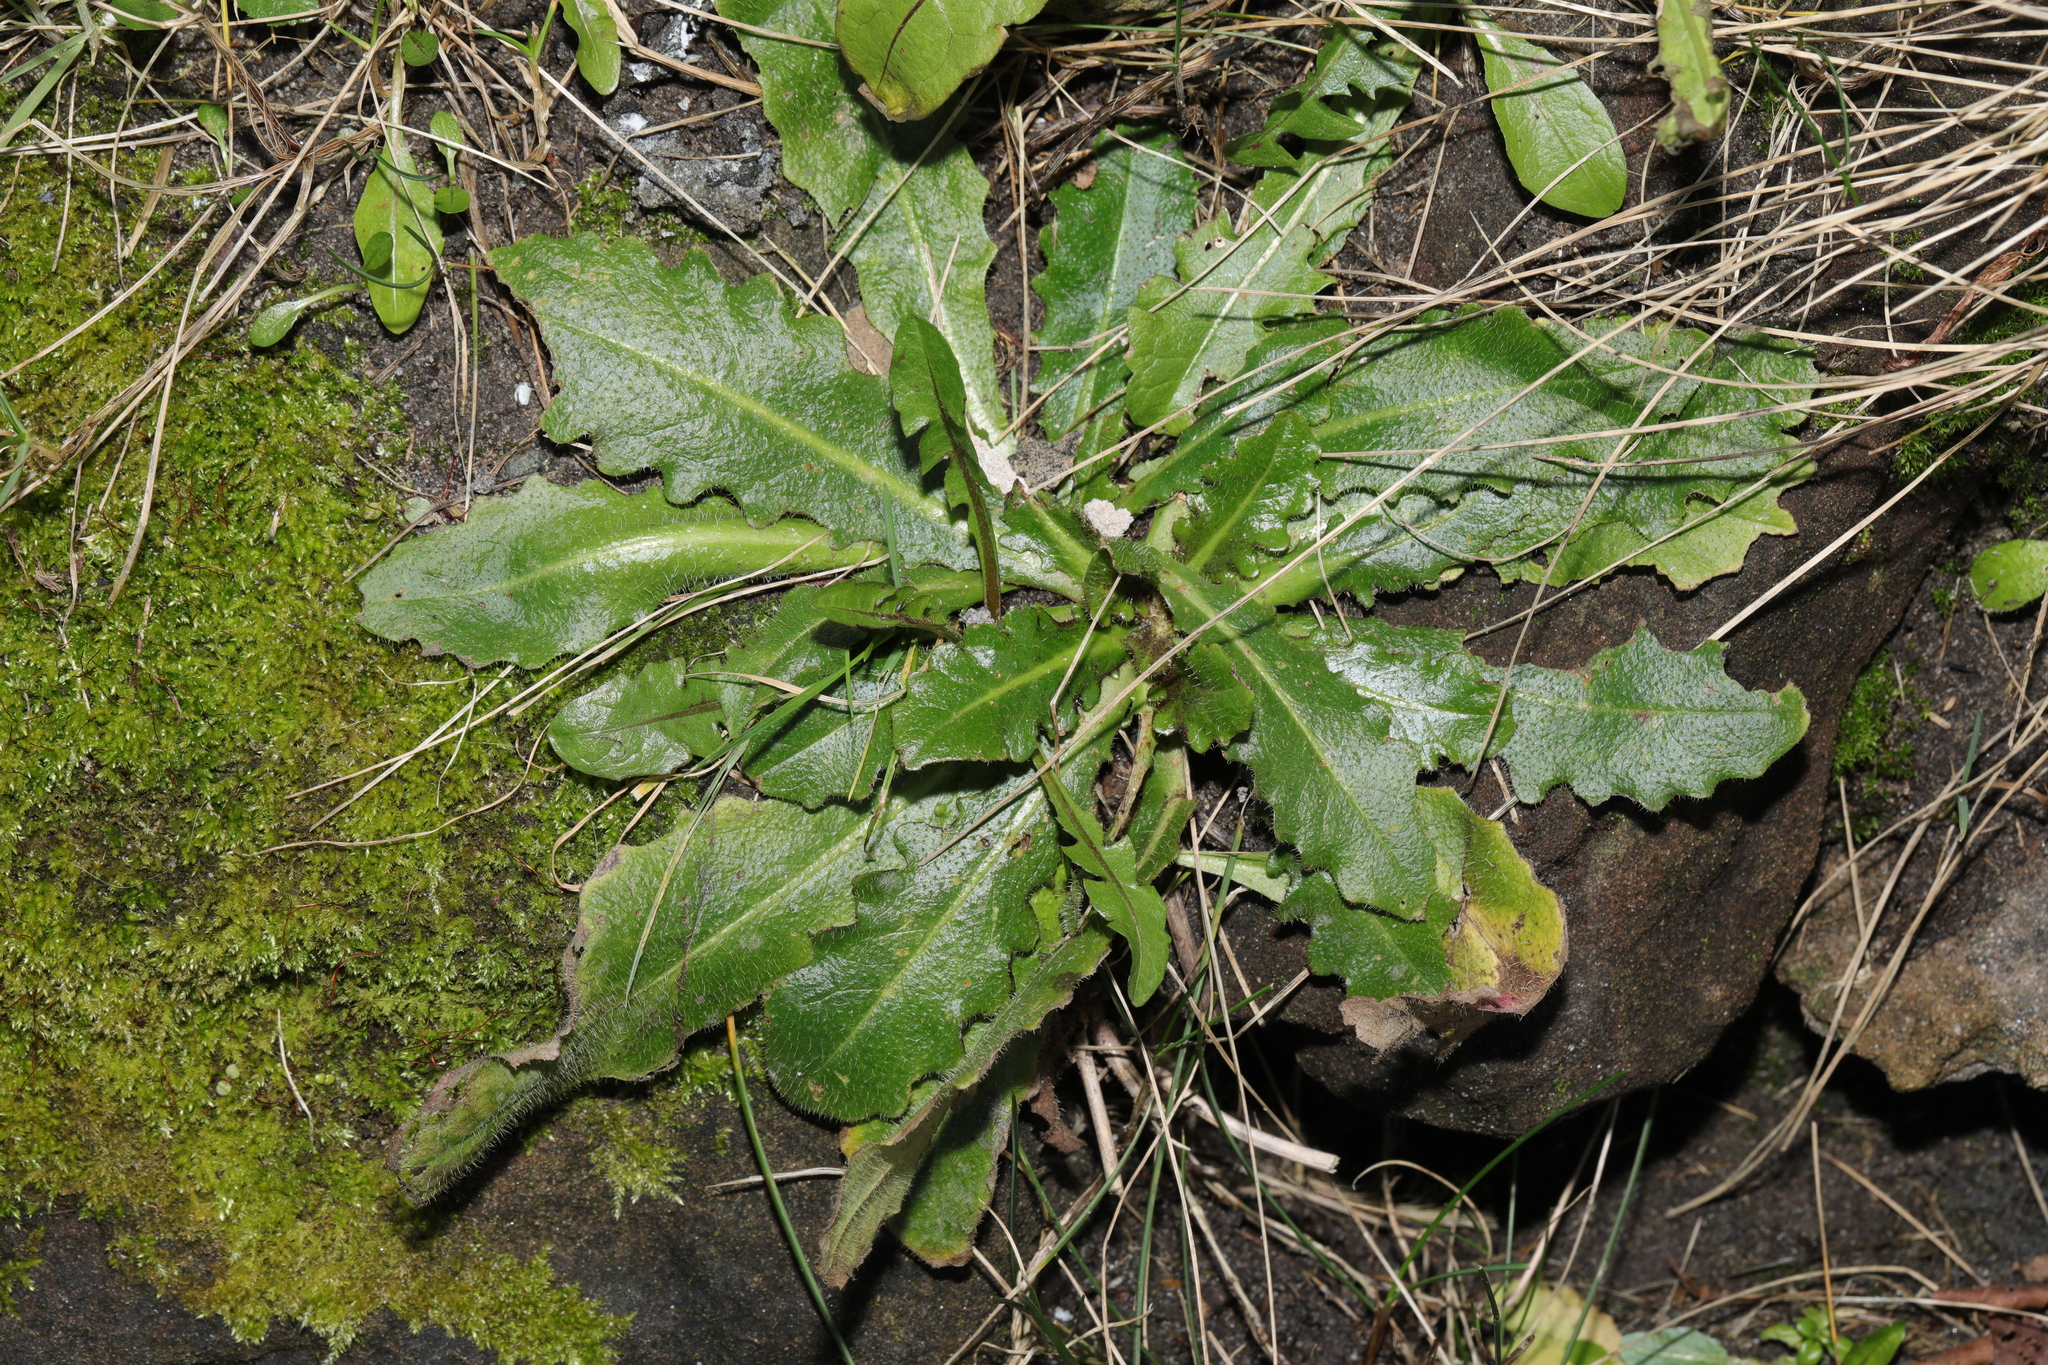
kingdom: Plantae
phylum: Tracheophyta
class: Magnoliopsida
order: Asterales
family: Asteraceae
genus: Hypochaeris
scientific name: Hypochaeris radicata
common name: Flatweed
